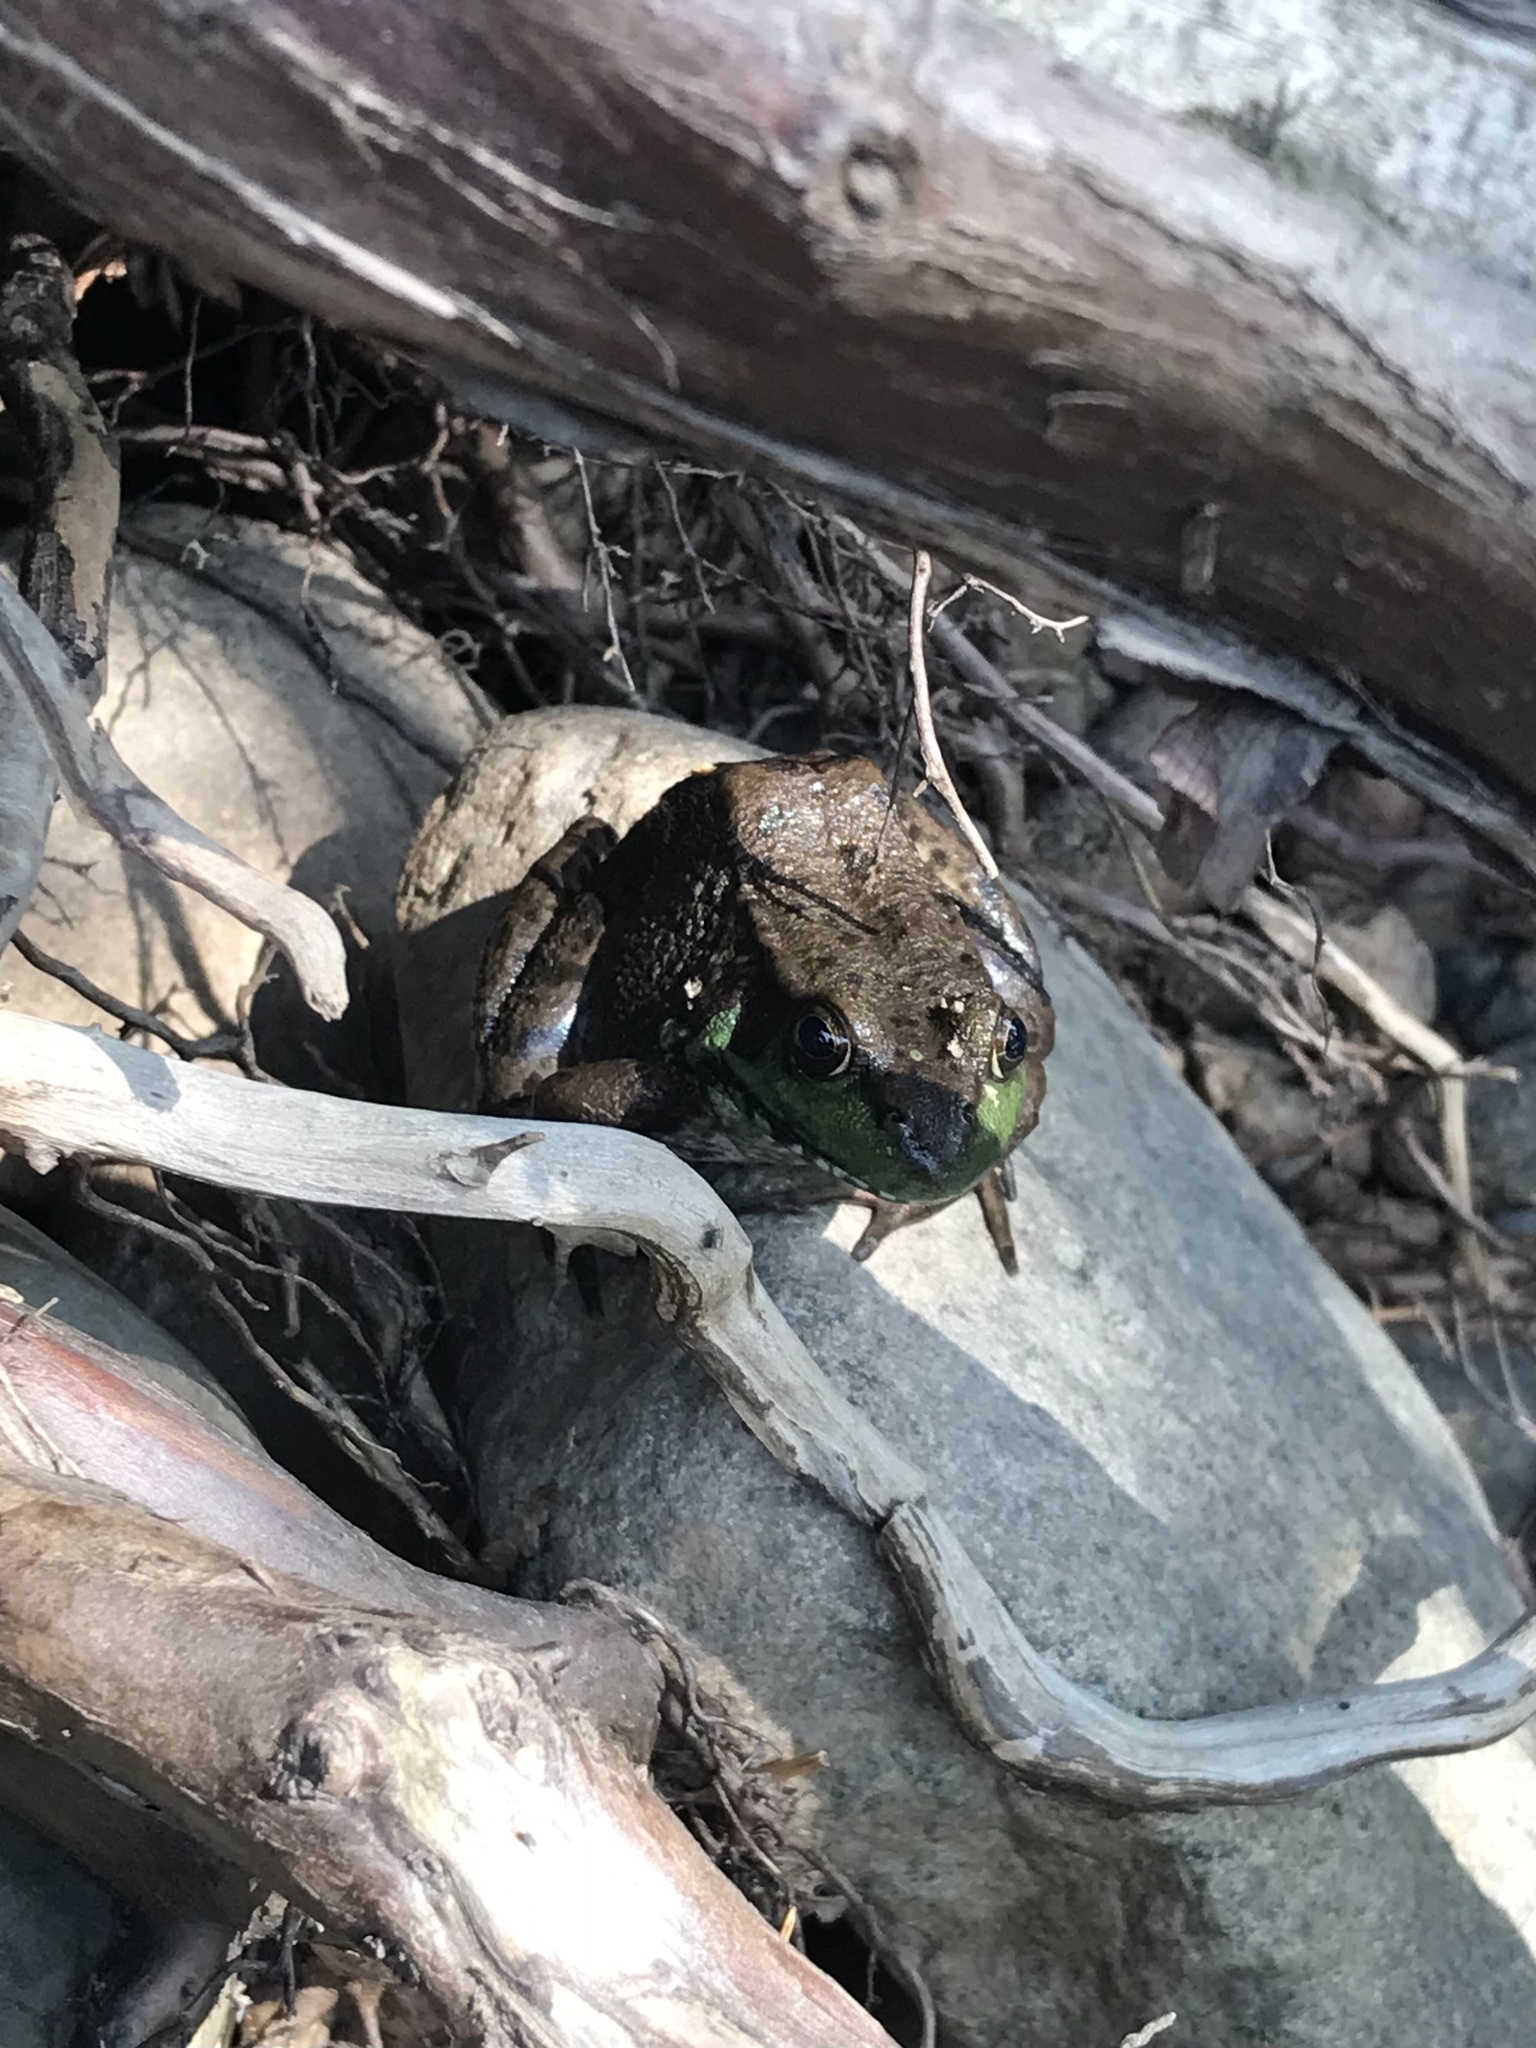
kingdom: Animalia
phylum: Chordata
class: Amphibia
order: Anura
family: Ranidae
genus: Lithobates
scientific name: Lithobates clamitans
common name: Green frog
